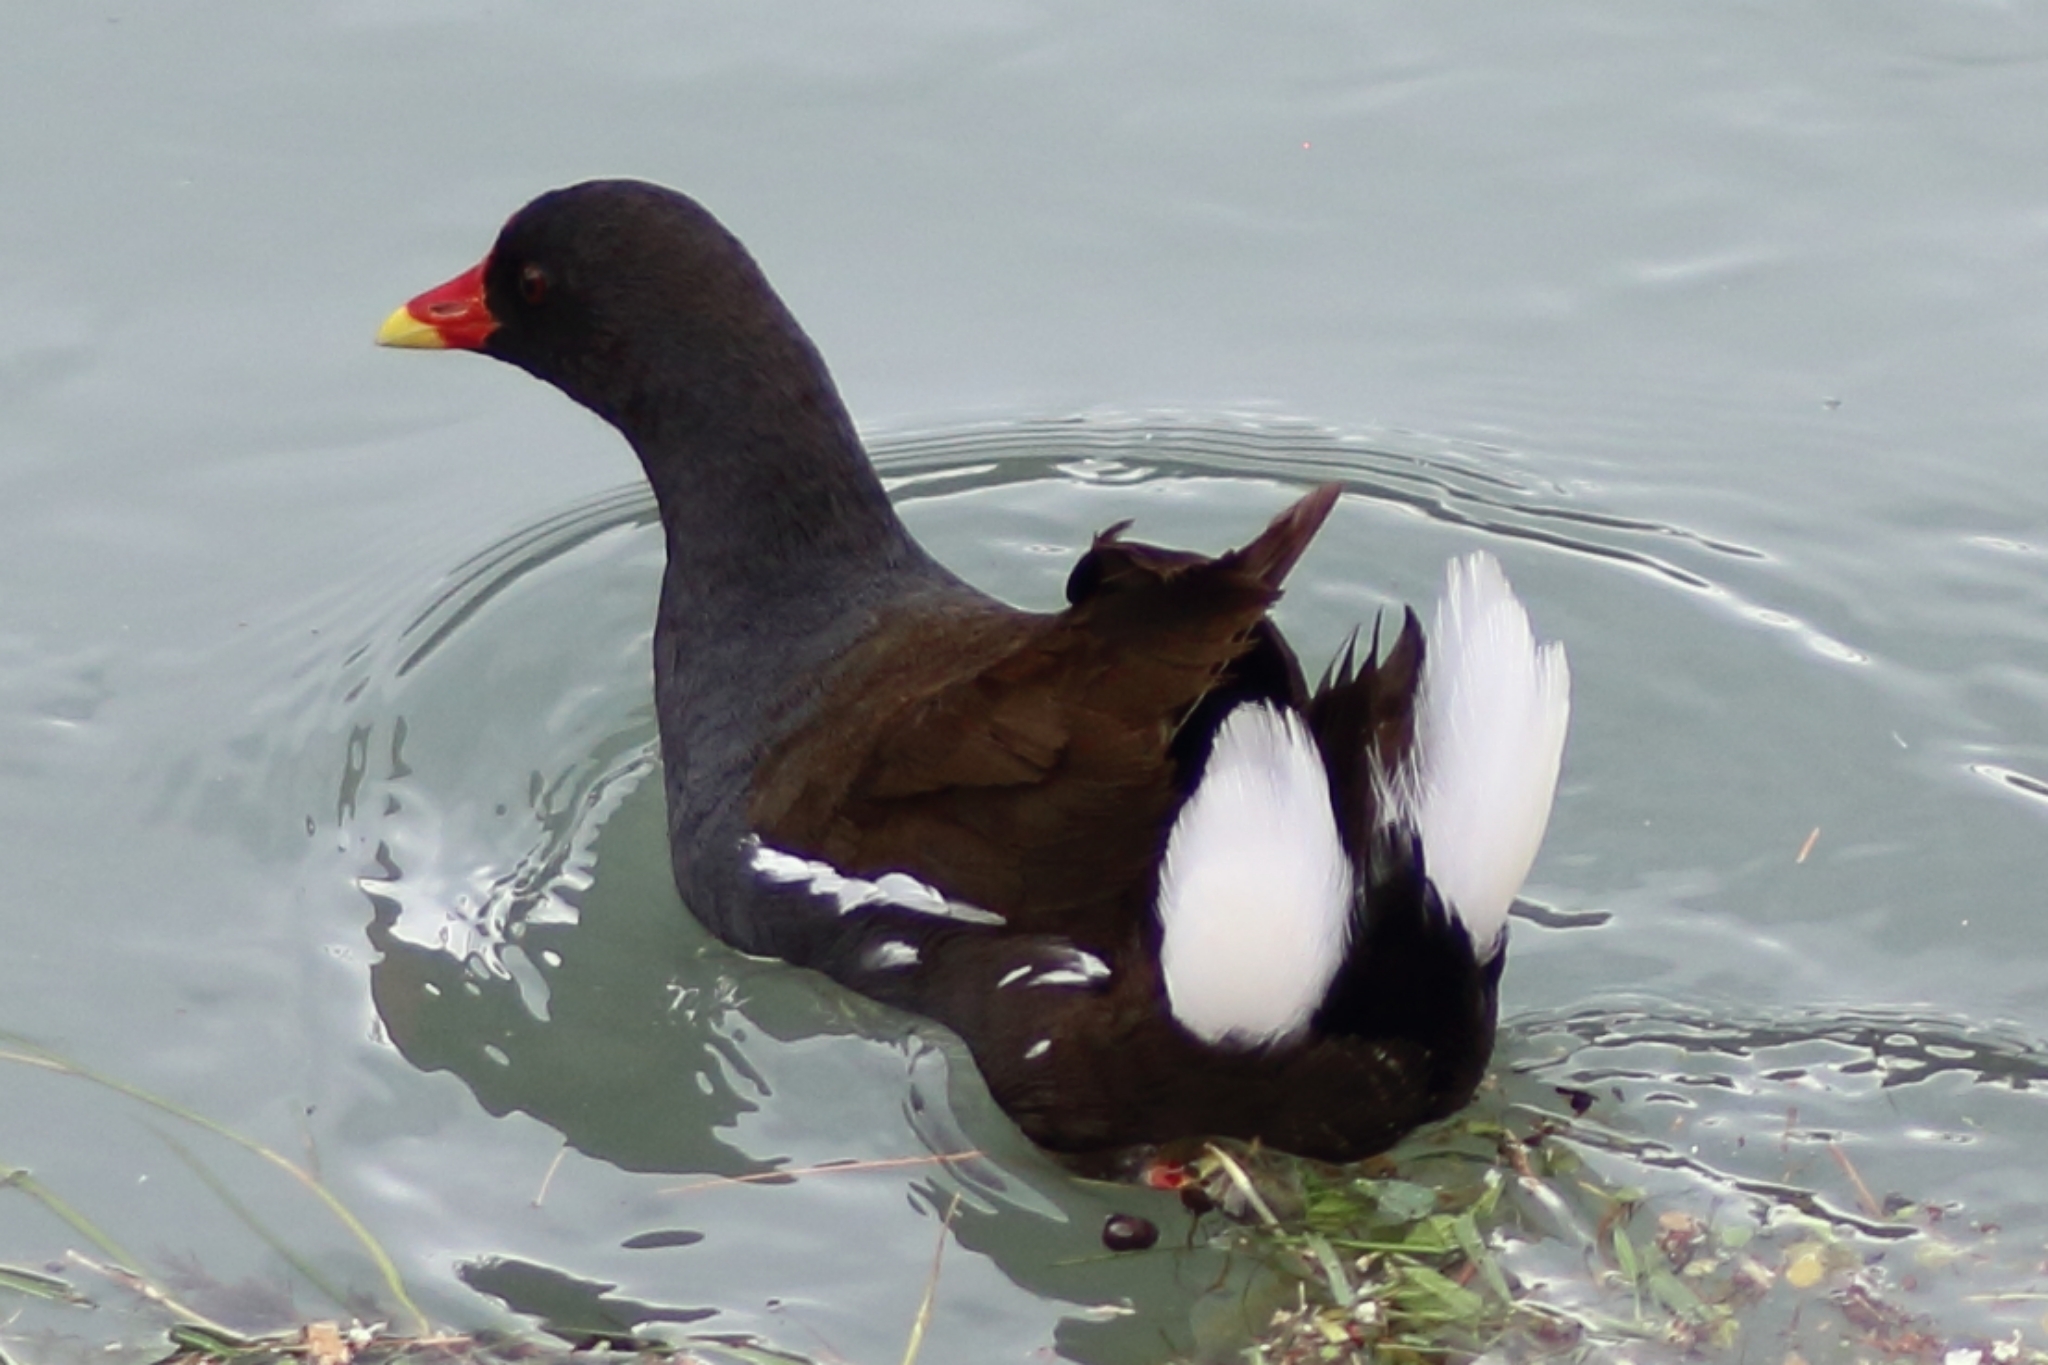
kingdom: Animalia
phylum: Chordata
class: Aves
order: Gruiformes
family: Rallidae
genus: Gallinula
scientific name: Gallinula chloropus
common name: Common moorhen
